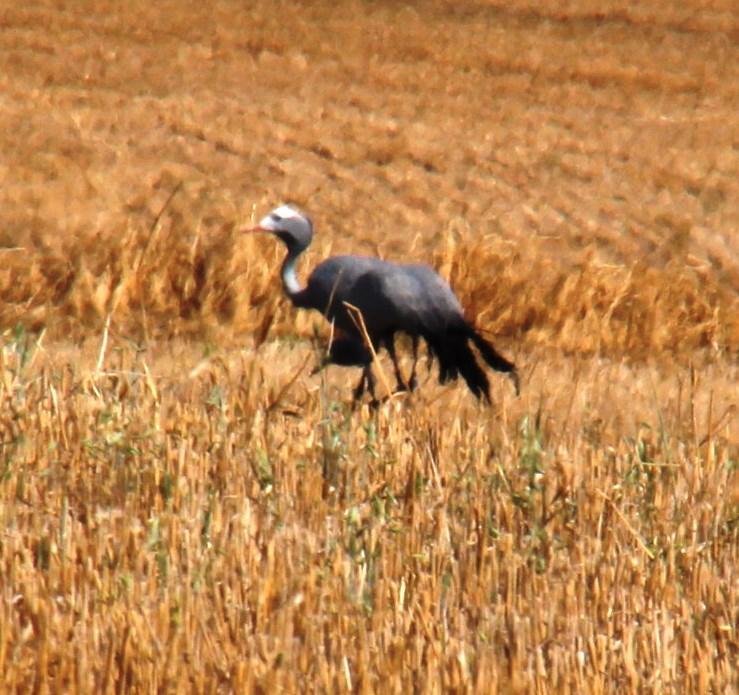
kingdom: Animalia
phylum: Chordata
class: Aves
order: Gruiformes
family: Gruidae
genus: Anthropoides
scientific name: Anthropoides paradiseus
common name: Blue crane
